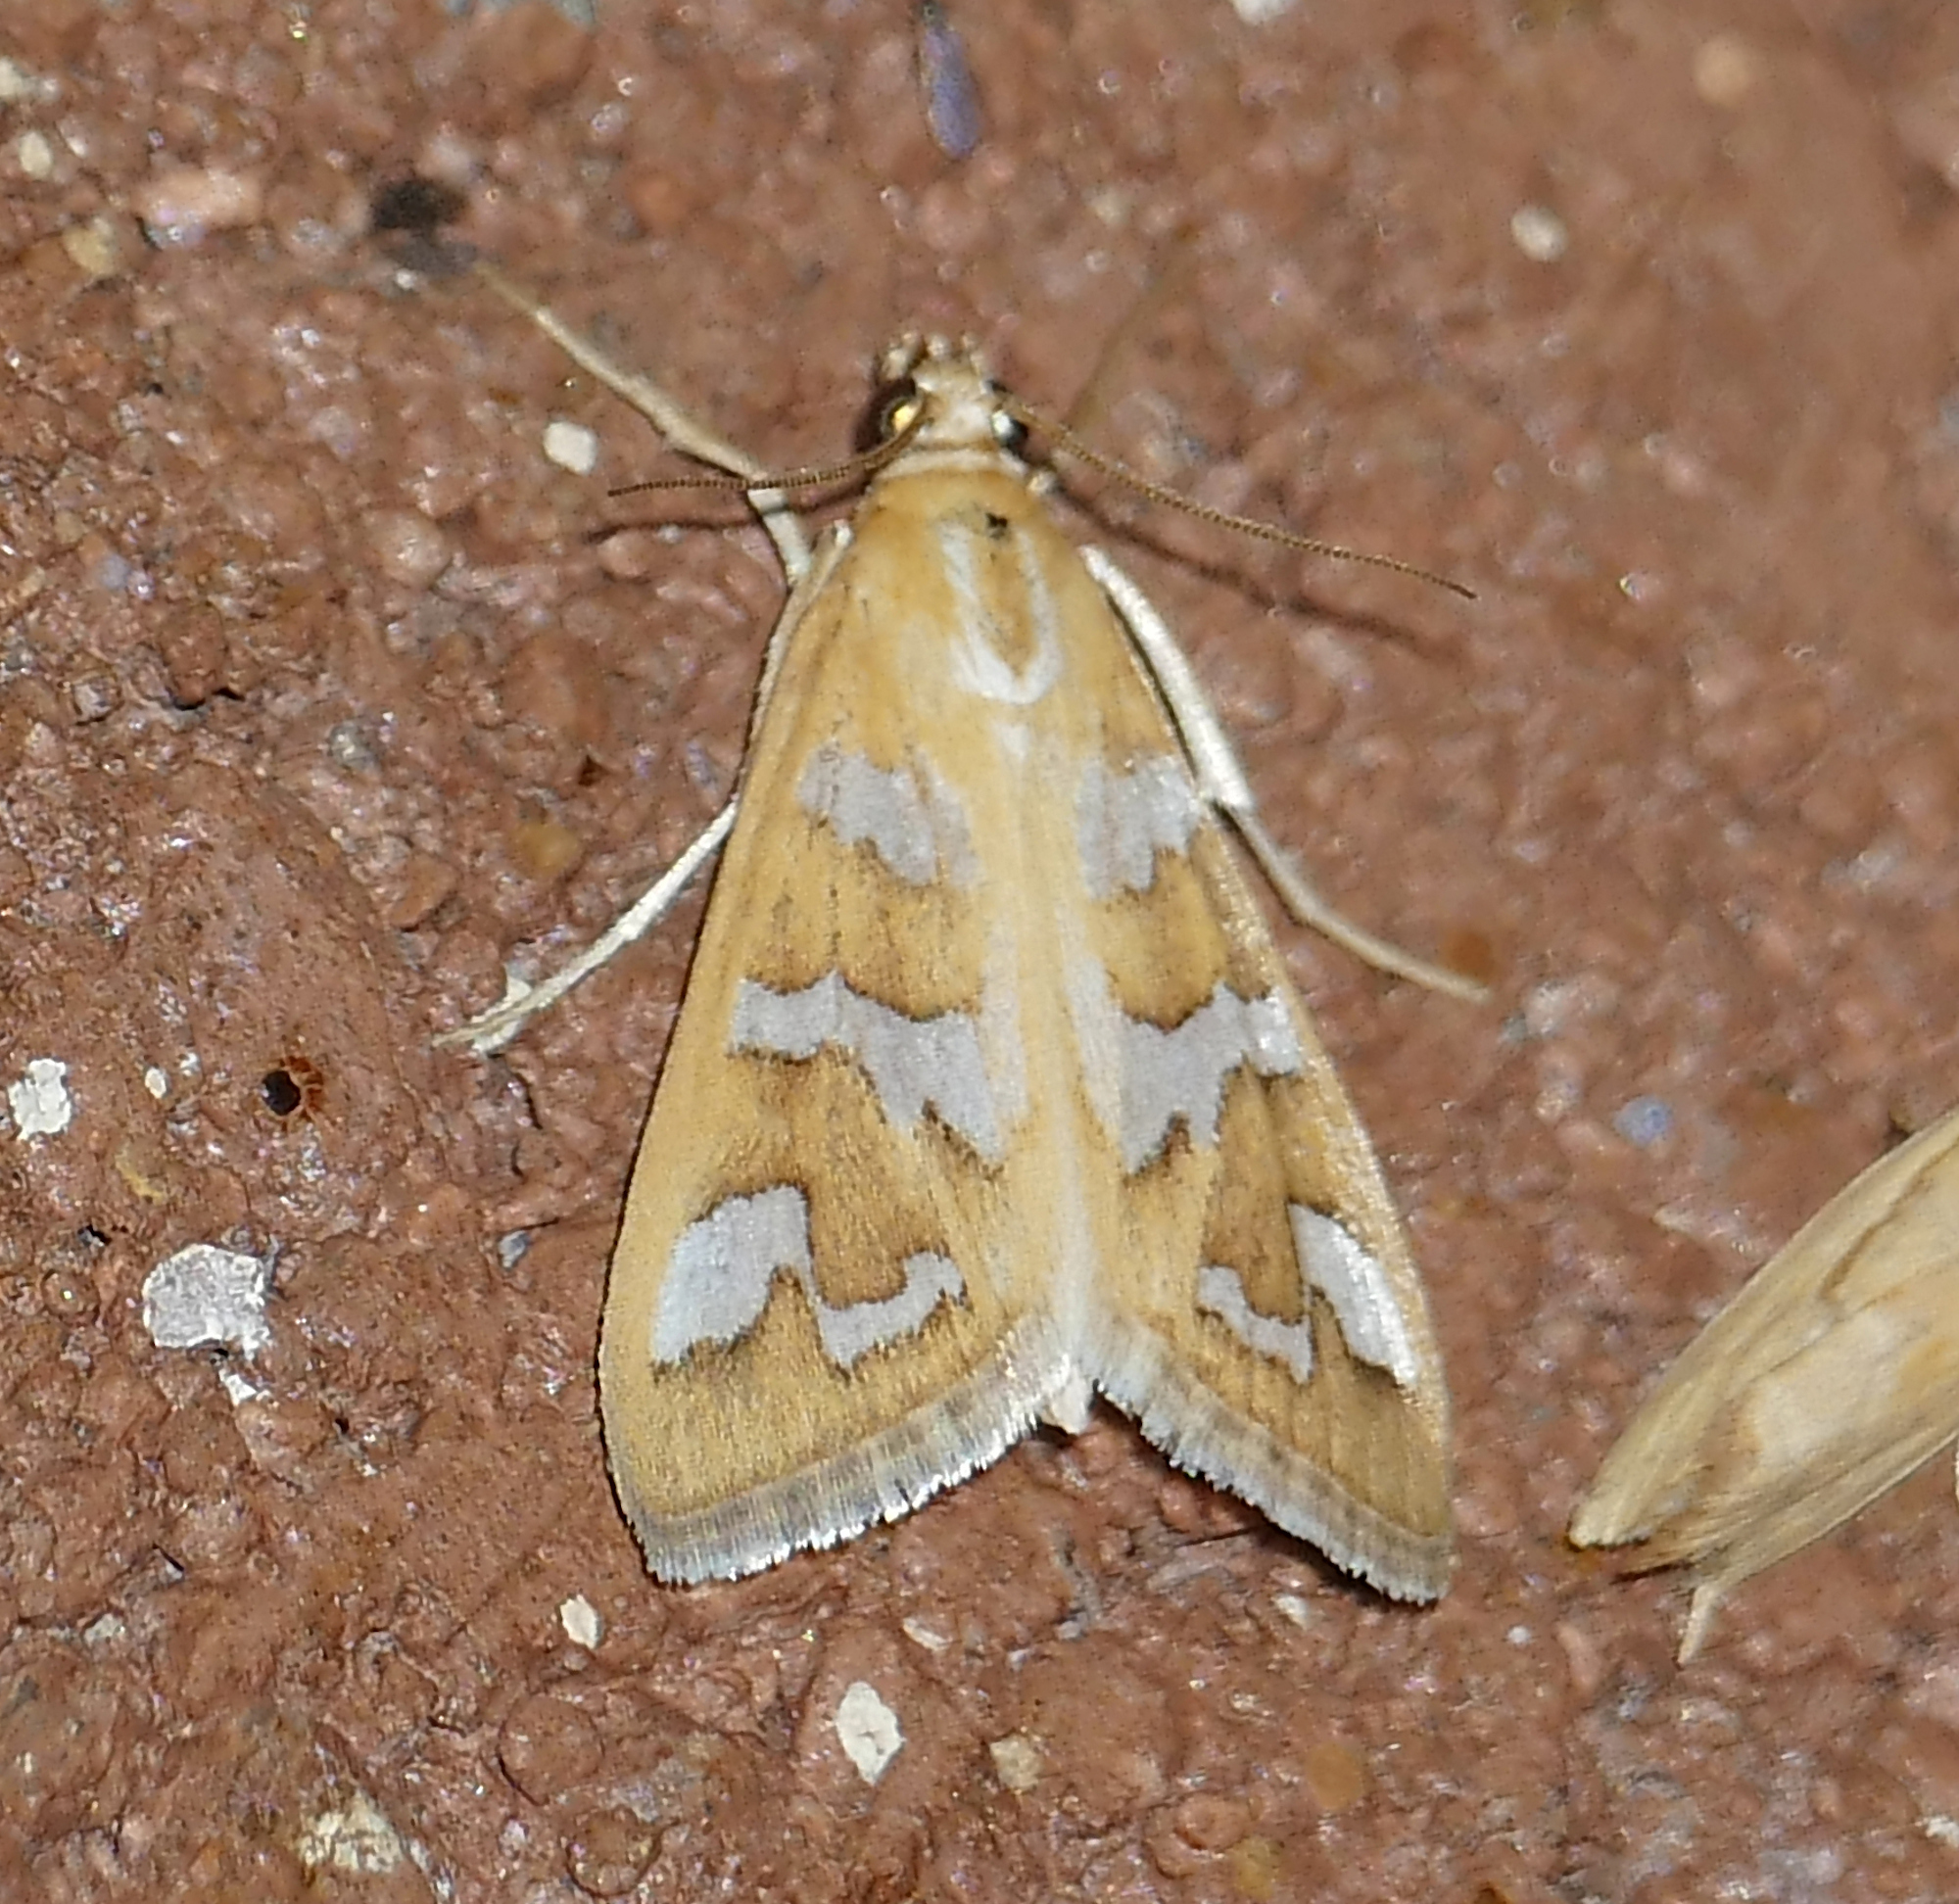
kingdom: Animalia
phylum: Arthropoda
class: Insecta
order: Lepidoptera
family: Crambidae
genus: Diastictis
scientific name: Diastictis fracturalis
